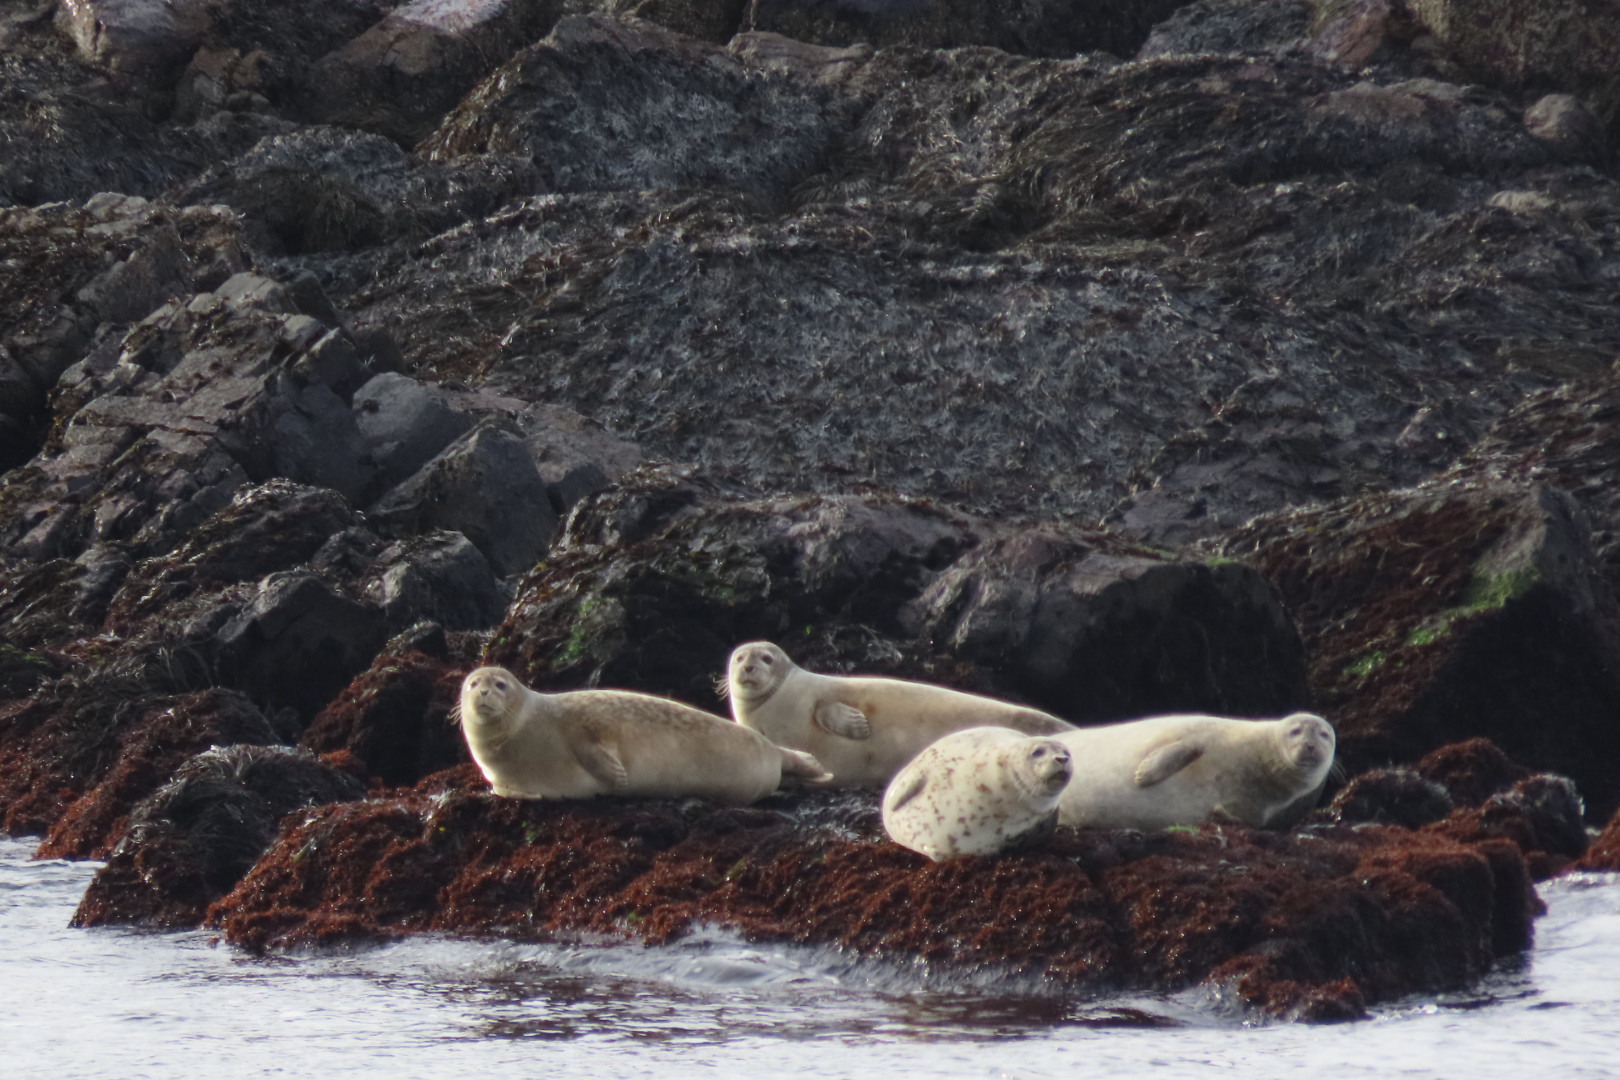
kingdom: Animalia
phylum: Chordata
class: Mammalia
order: Carnivora
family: Phocidae
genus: Phoca
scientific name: Phoca vitulina
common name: Harbor seal
